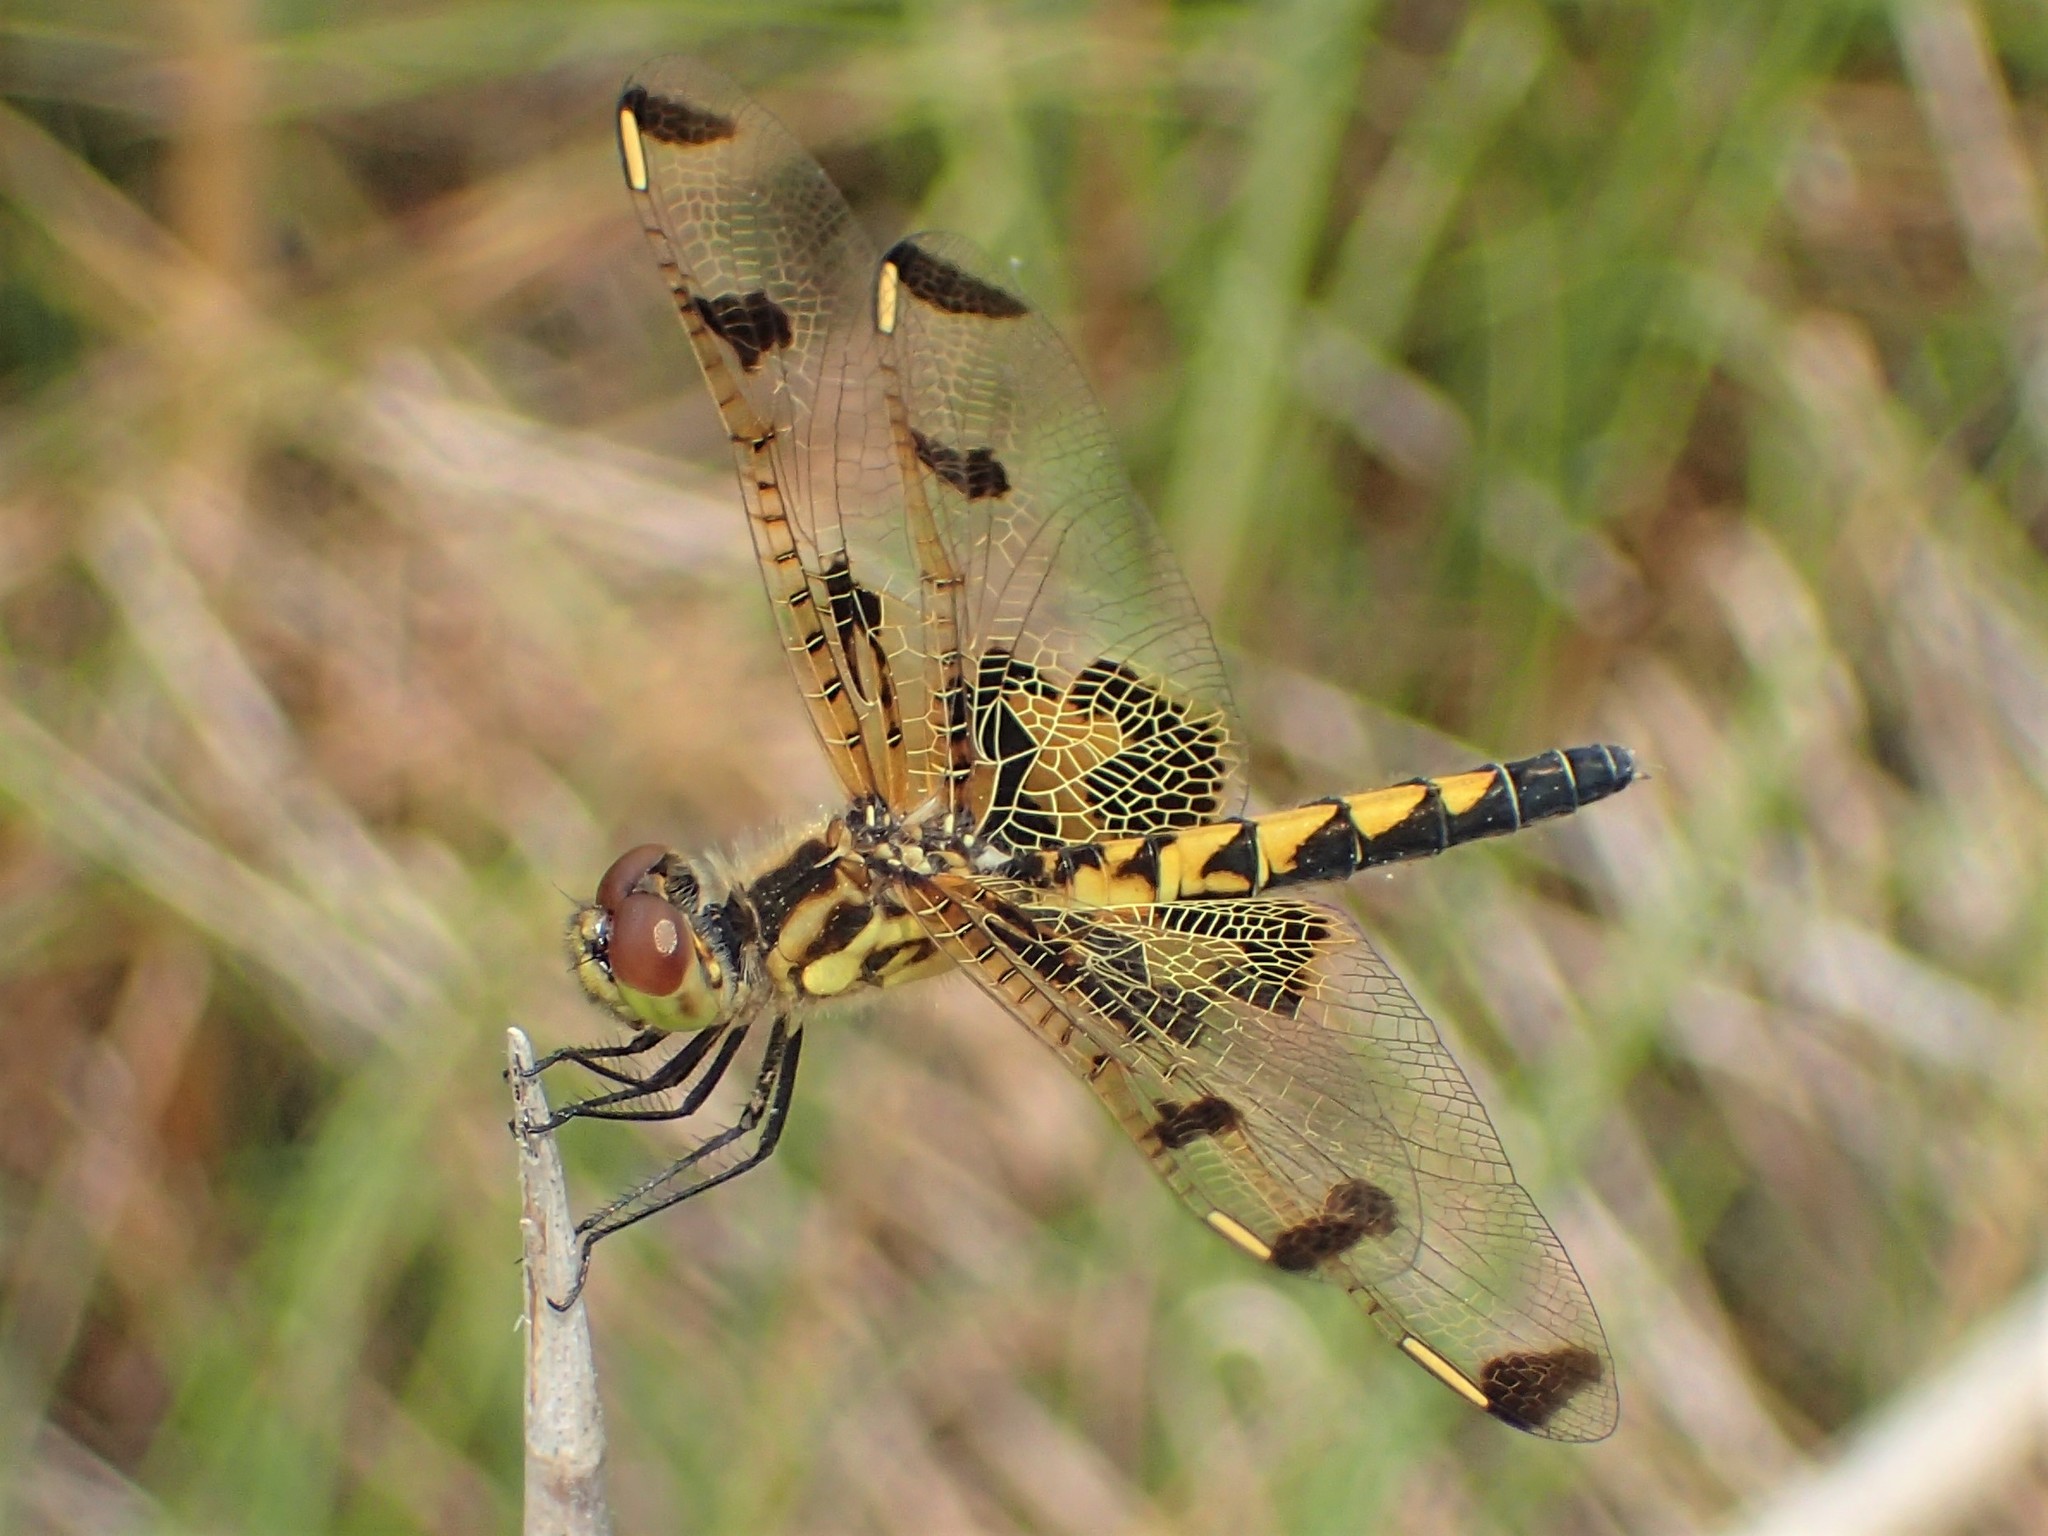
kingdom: Animalia
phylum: Arthropoda
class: Insecta
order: Odonata
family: Libellulidae
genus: Celithemis
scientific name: Celithemis elisa
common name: Calico pennant
